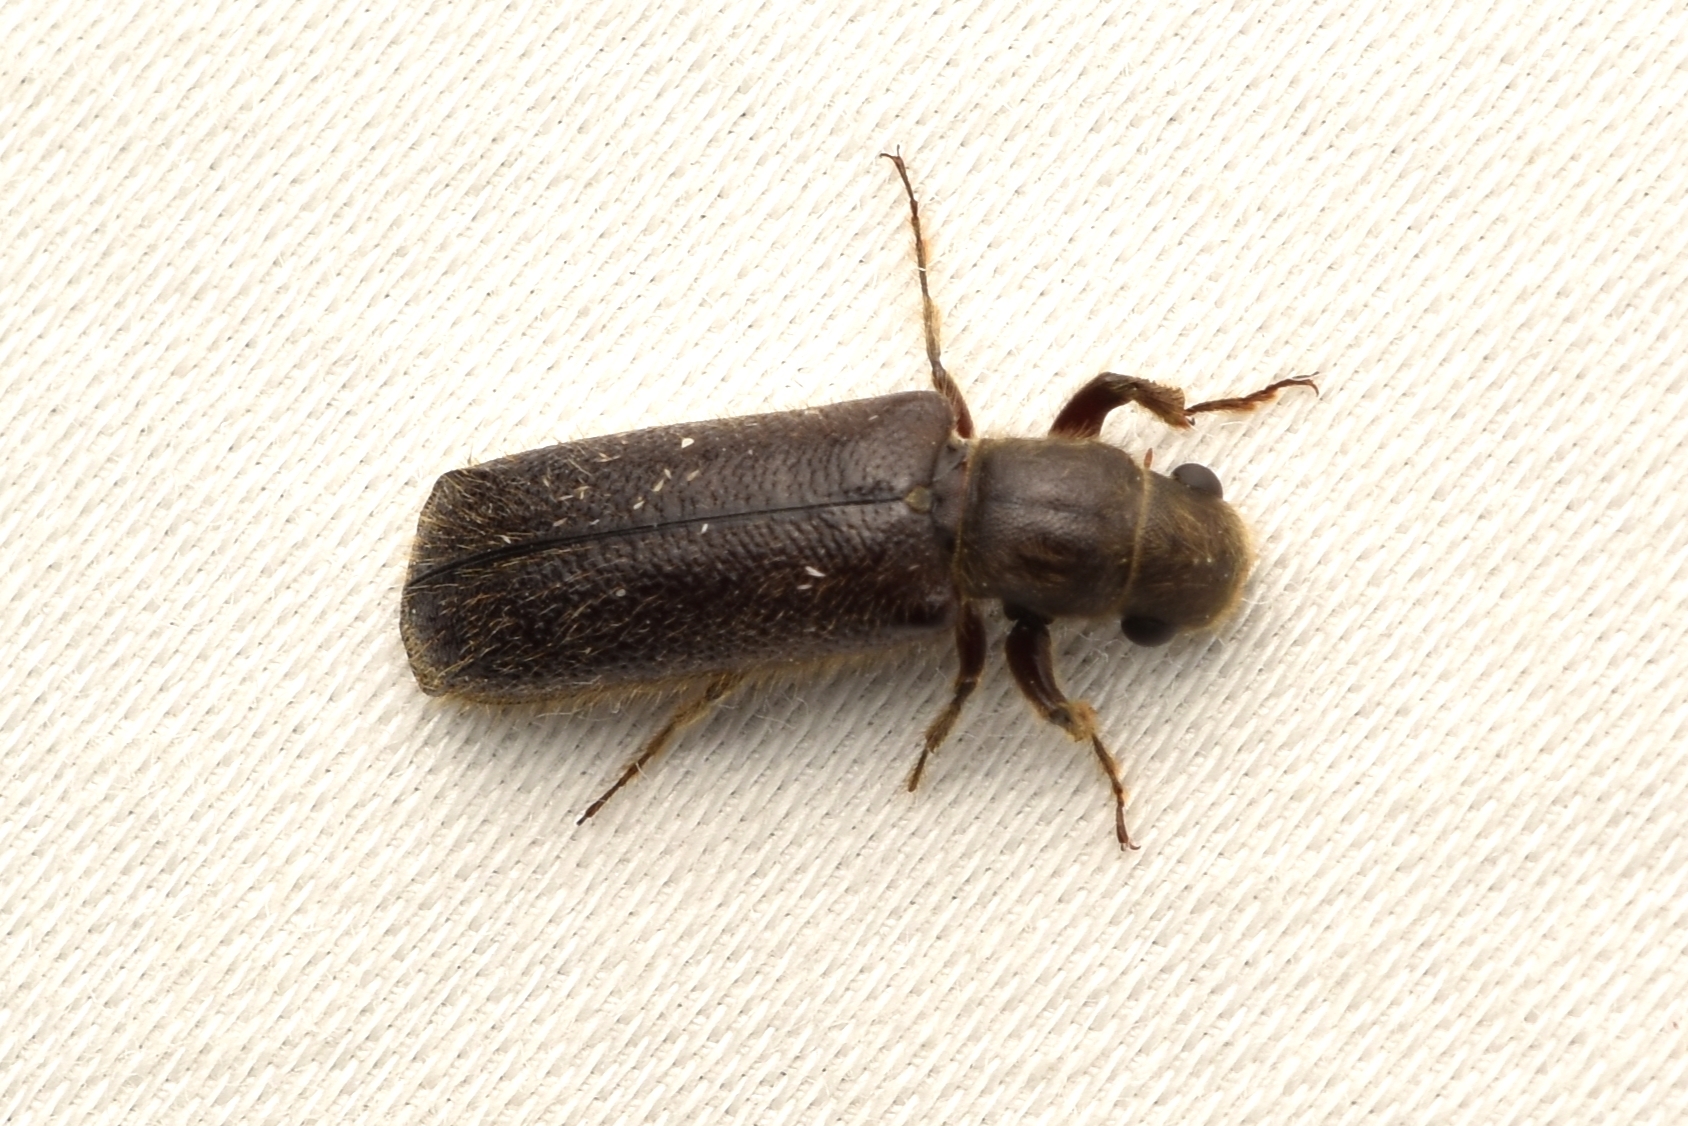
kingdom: Animalia
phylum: Arthropoda
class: Insecta
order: Coleoptera
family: Bostrichidae
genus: Melalgus
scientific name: Melalgus plicatus
